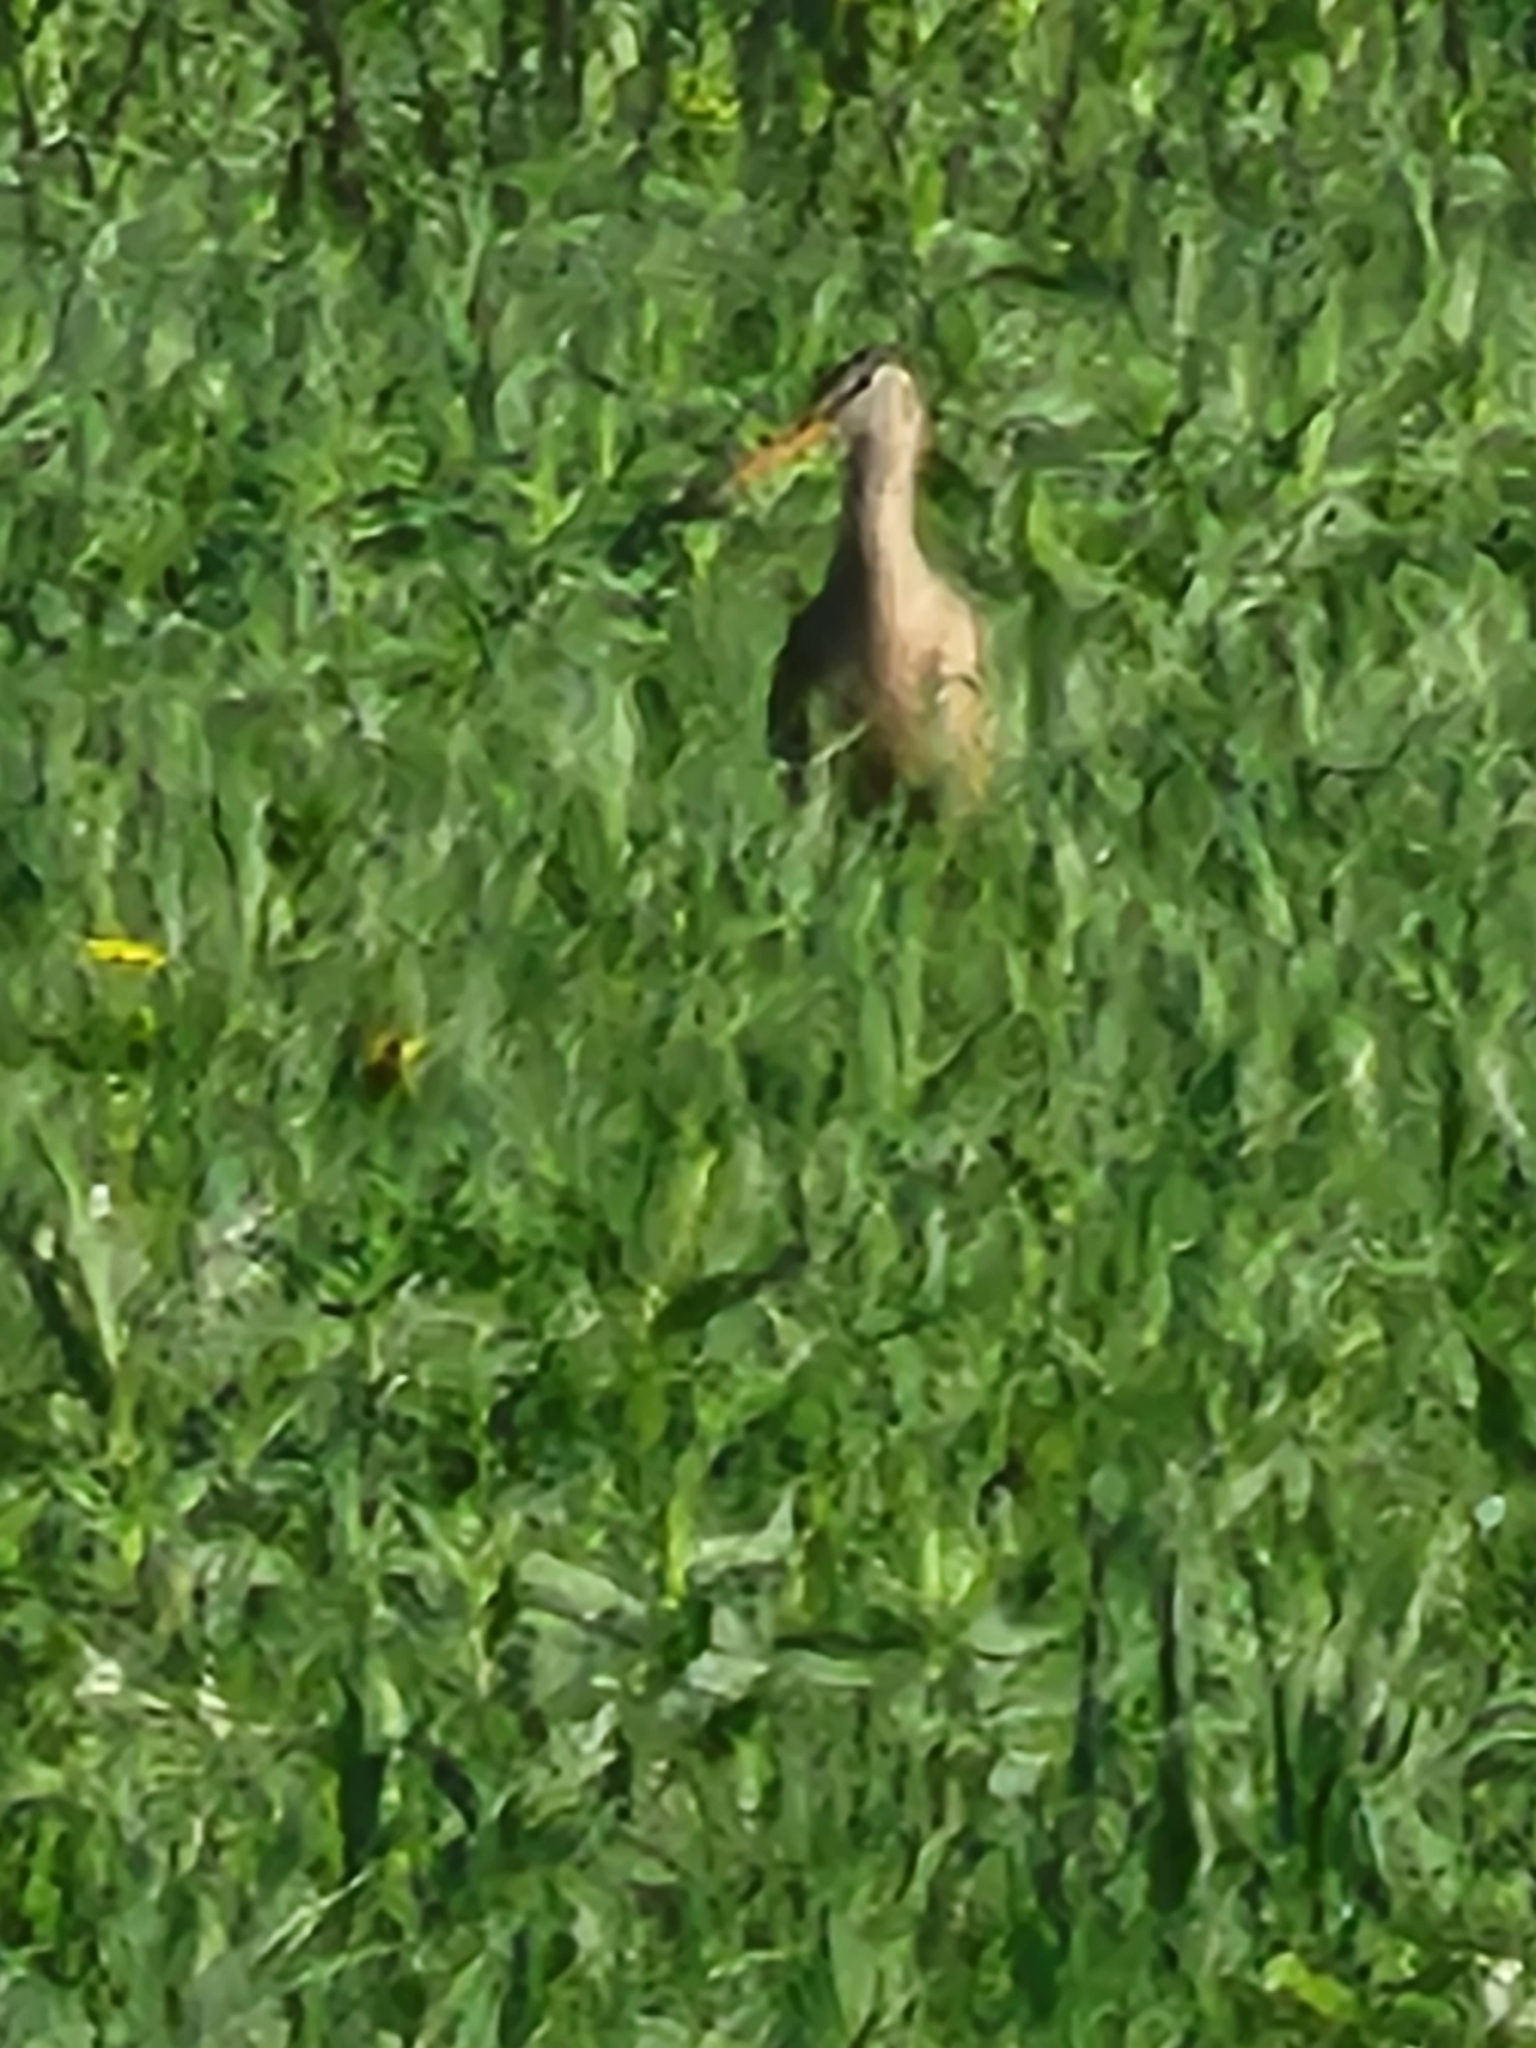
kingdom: Animalia
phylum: Chordata
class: Aves
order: Charadriiformes
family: Scolopacidae
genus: Limosa
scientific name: Limosa fedoa
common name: Marbled godwit
